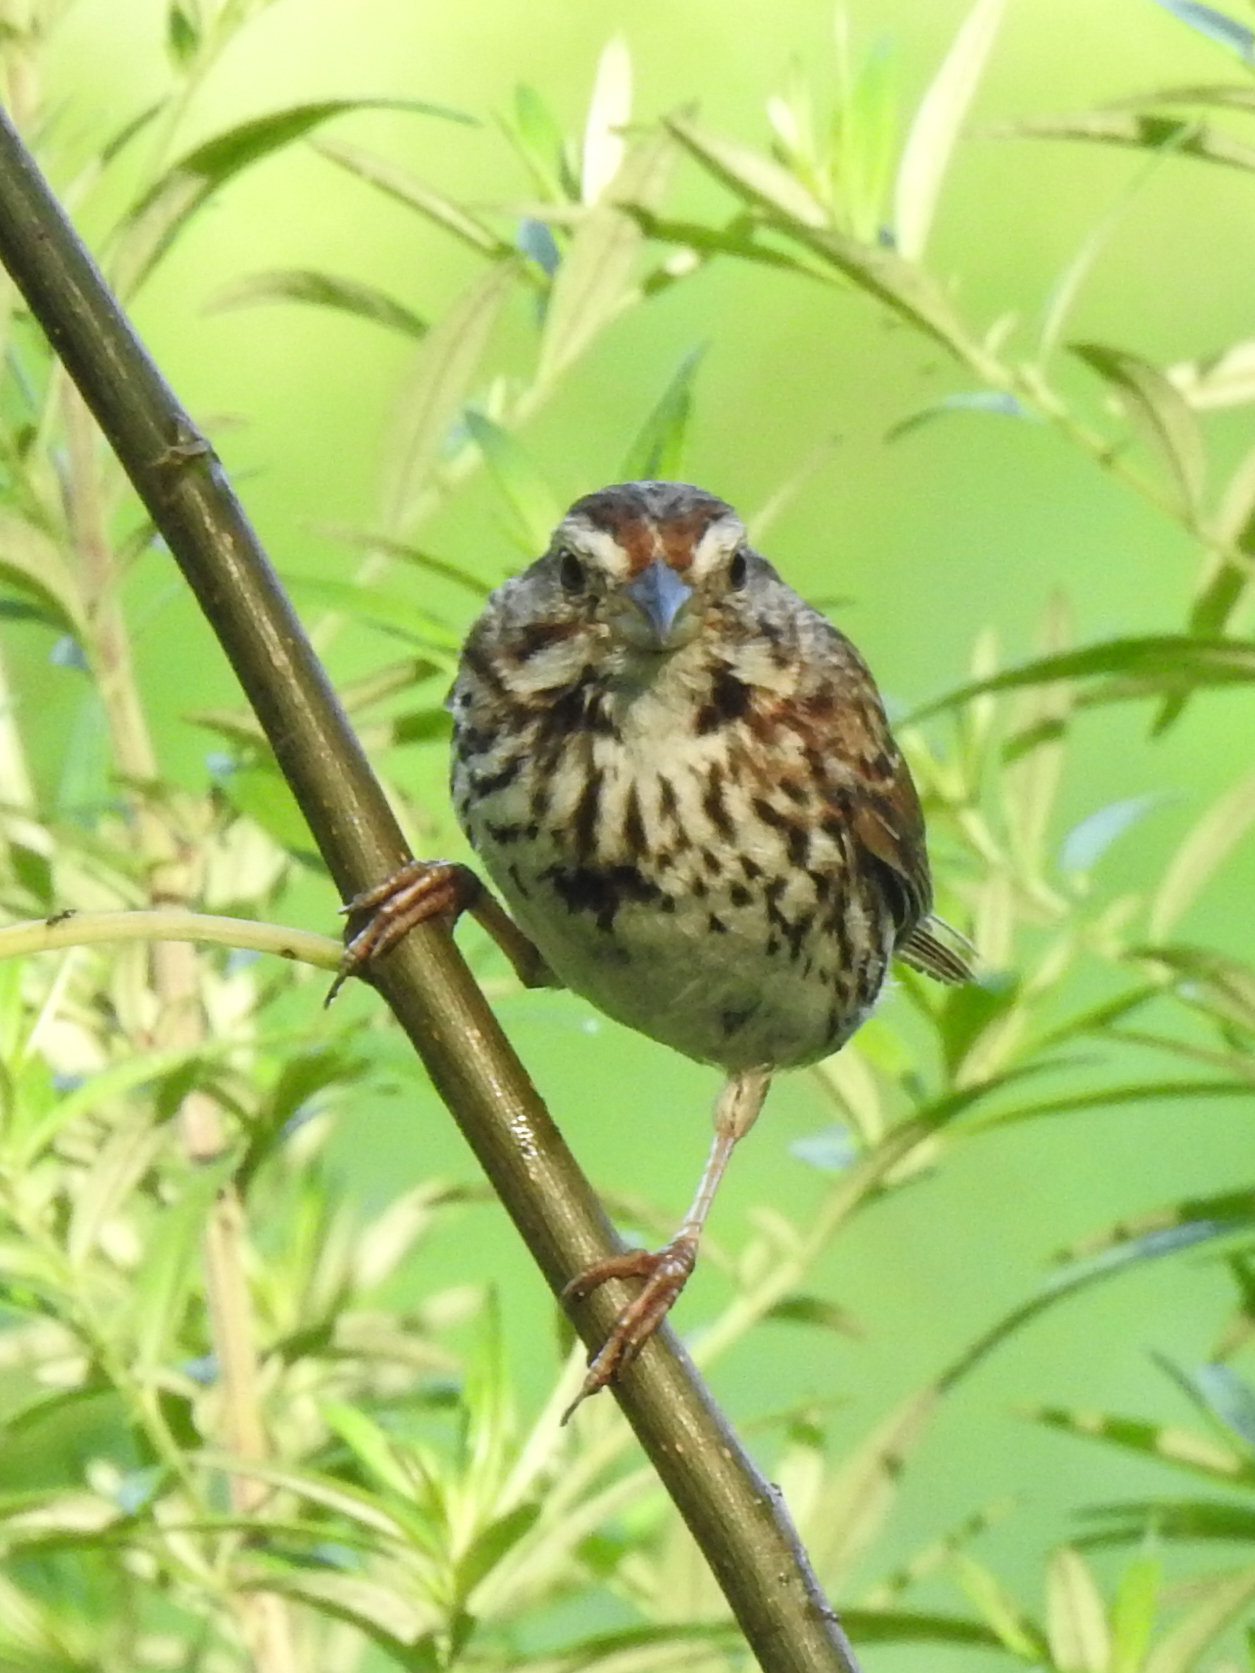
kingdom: Animalia
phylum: Chordata
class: Aves
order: Passeriformes
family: Passerellidae
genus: Melospiza
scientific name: Melospiza melodia
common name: Song sparrow
